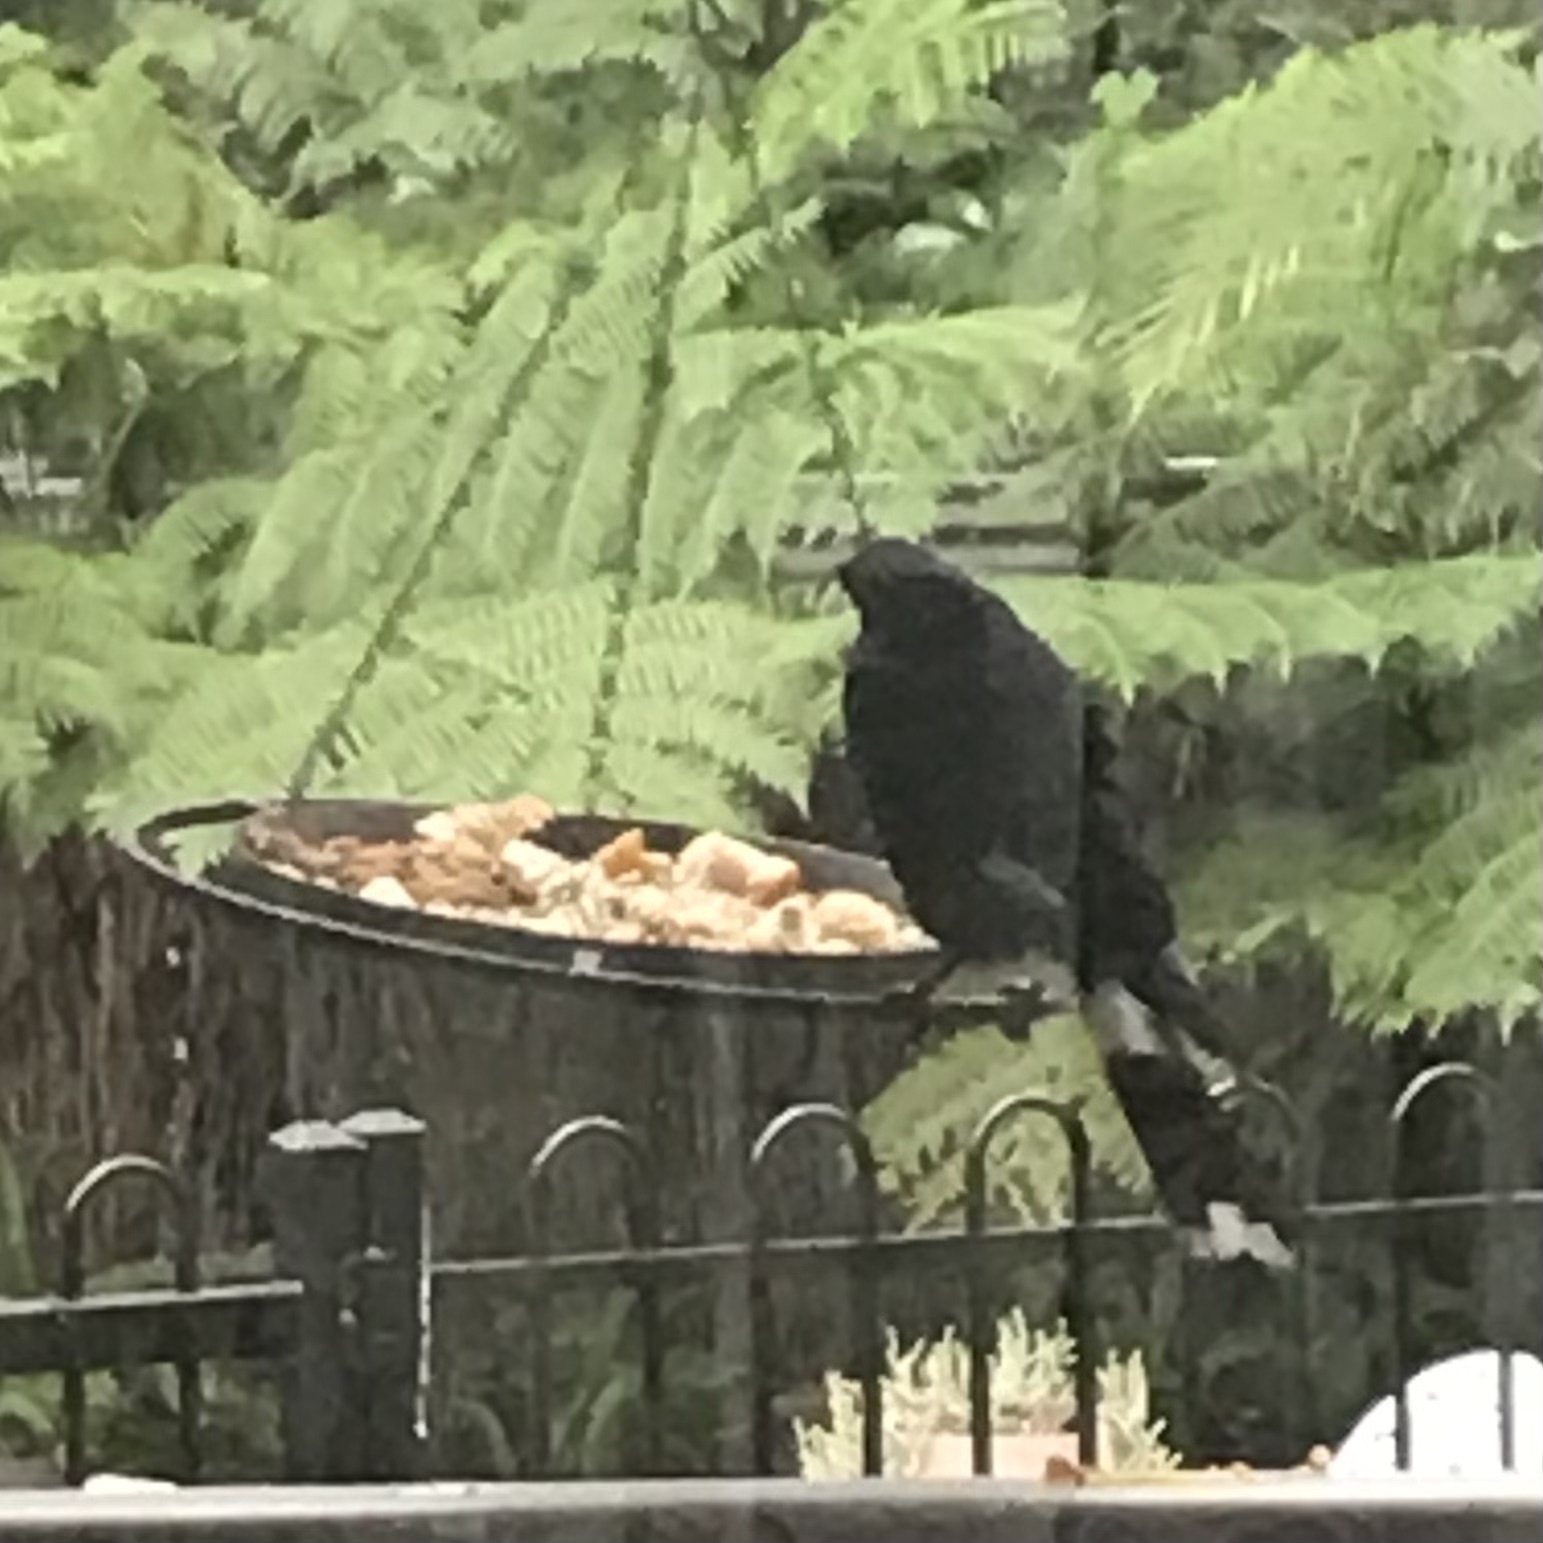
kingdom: Animalia
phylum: Chordata
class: Aves
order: Passeriformes
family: Cracticidae
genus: Strepera
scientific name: Strepera graculina
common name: Pied currawong
